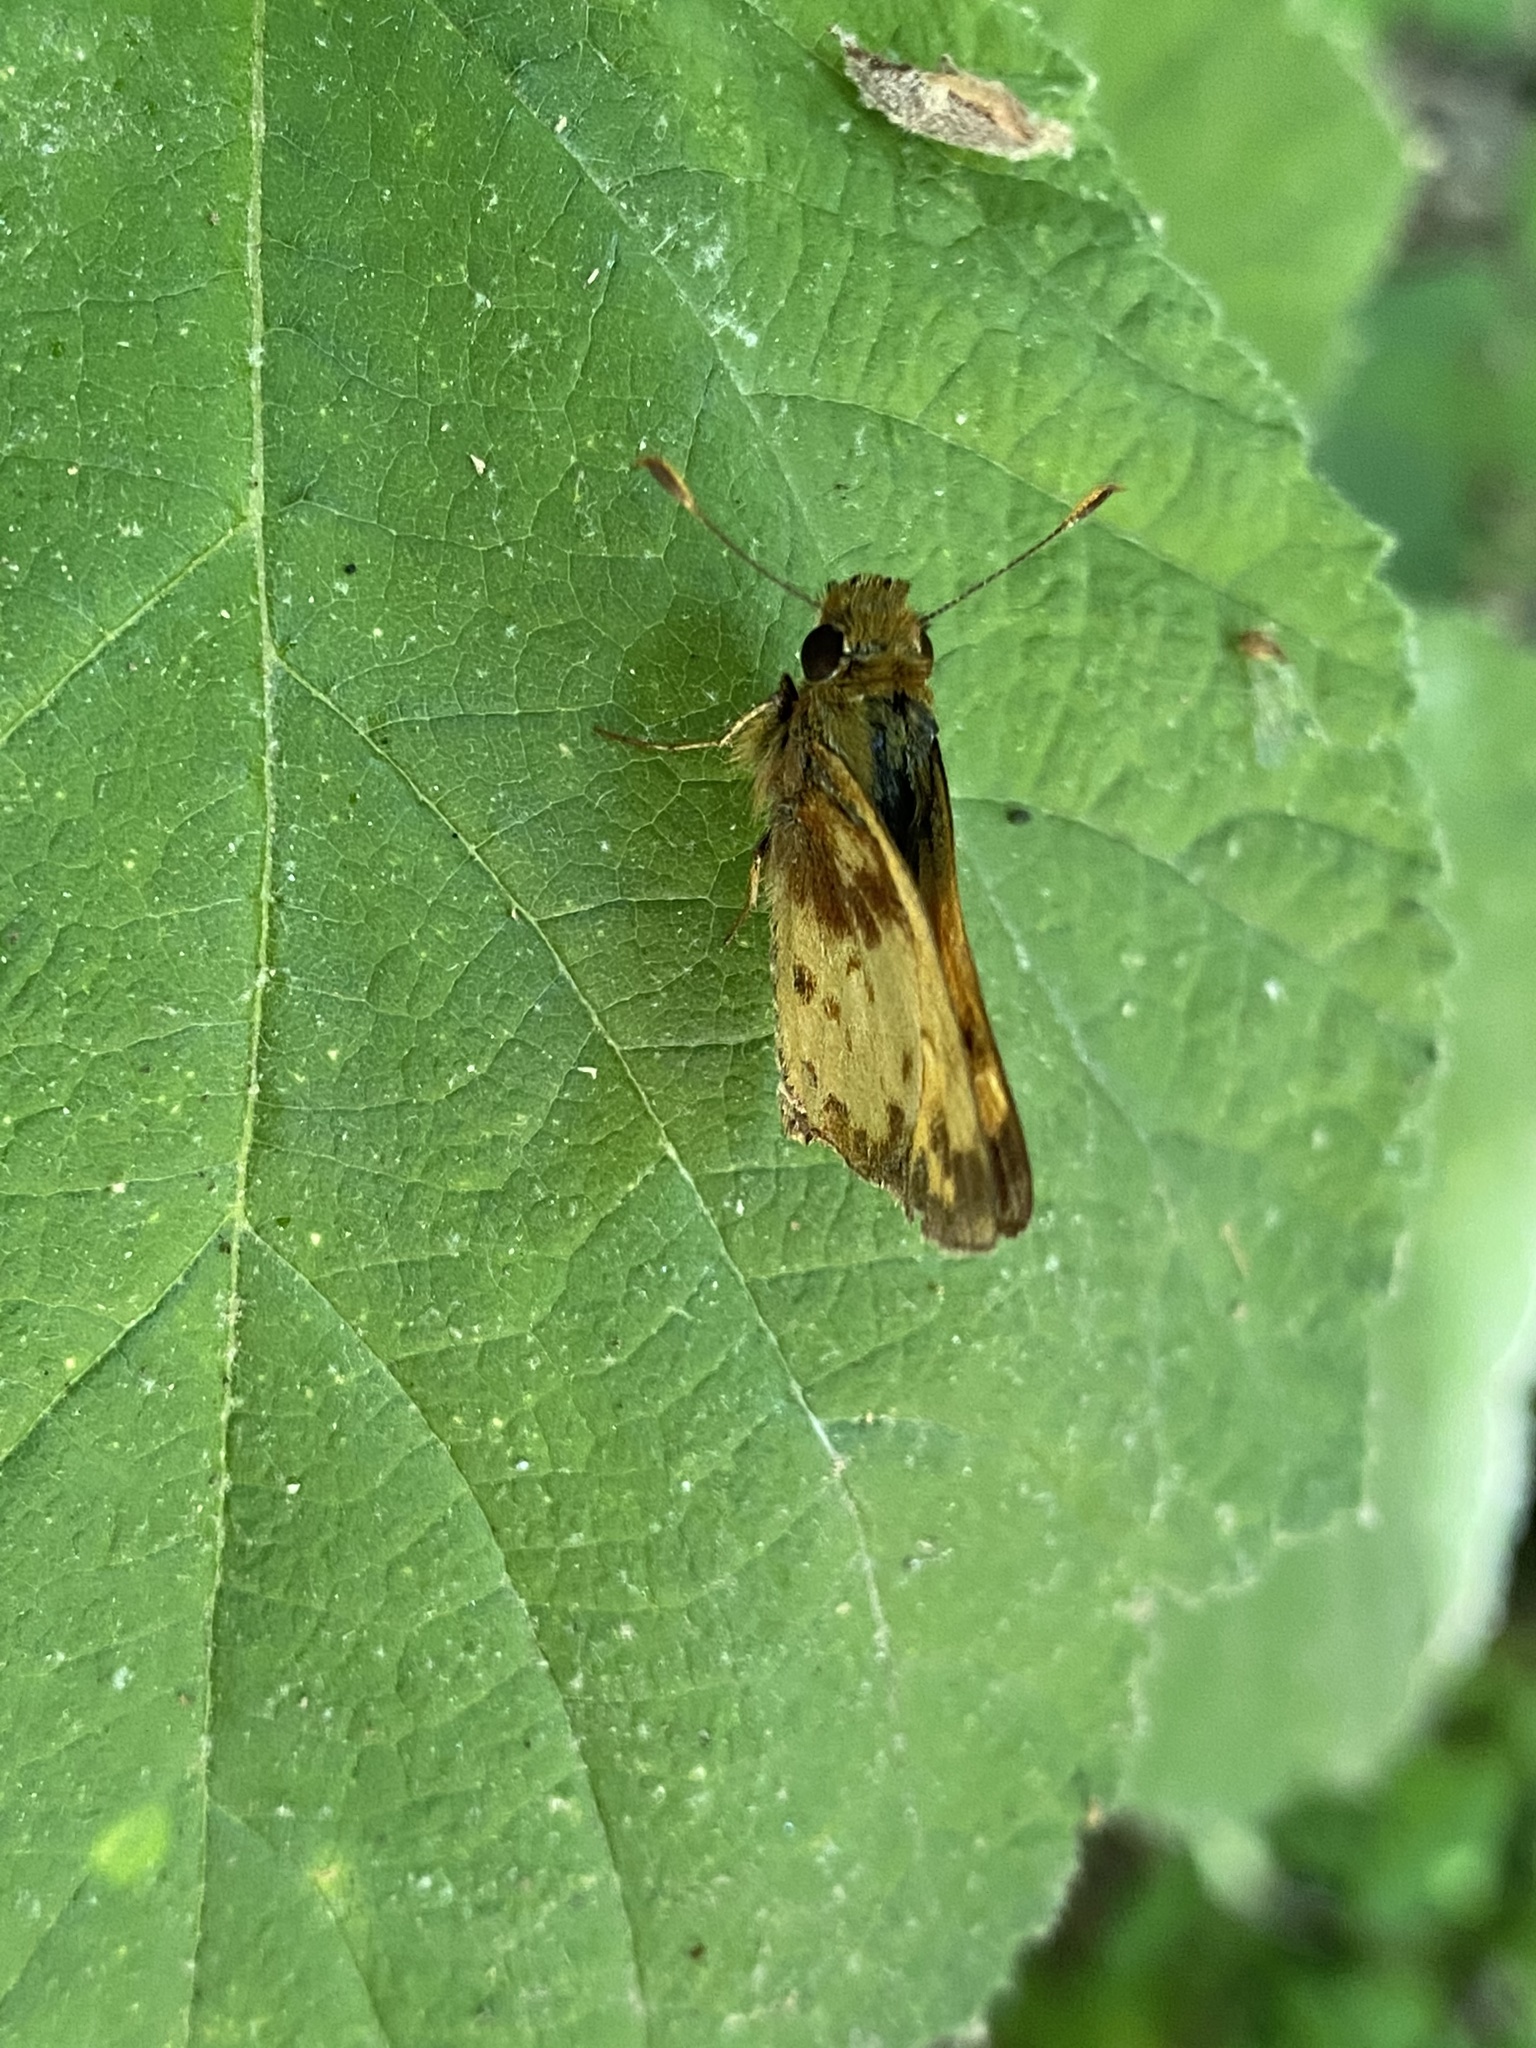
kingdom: Animalia
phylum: Arthropoda
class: Insecta
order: Lepidoptera
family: Hesperiidae
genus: Lon
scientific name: Lon zabulon
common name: Zabulon skipper
